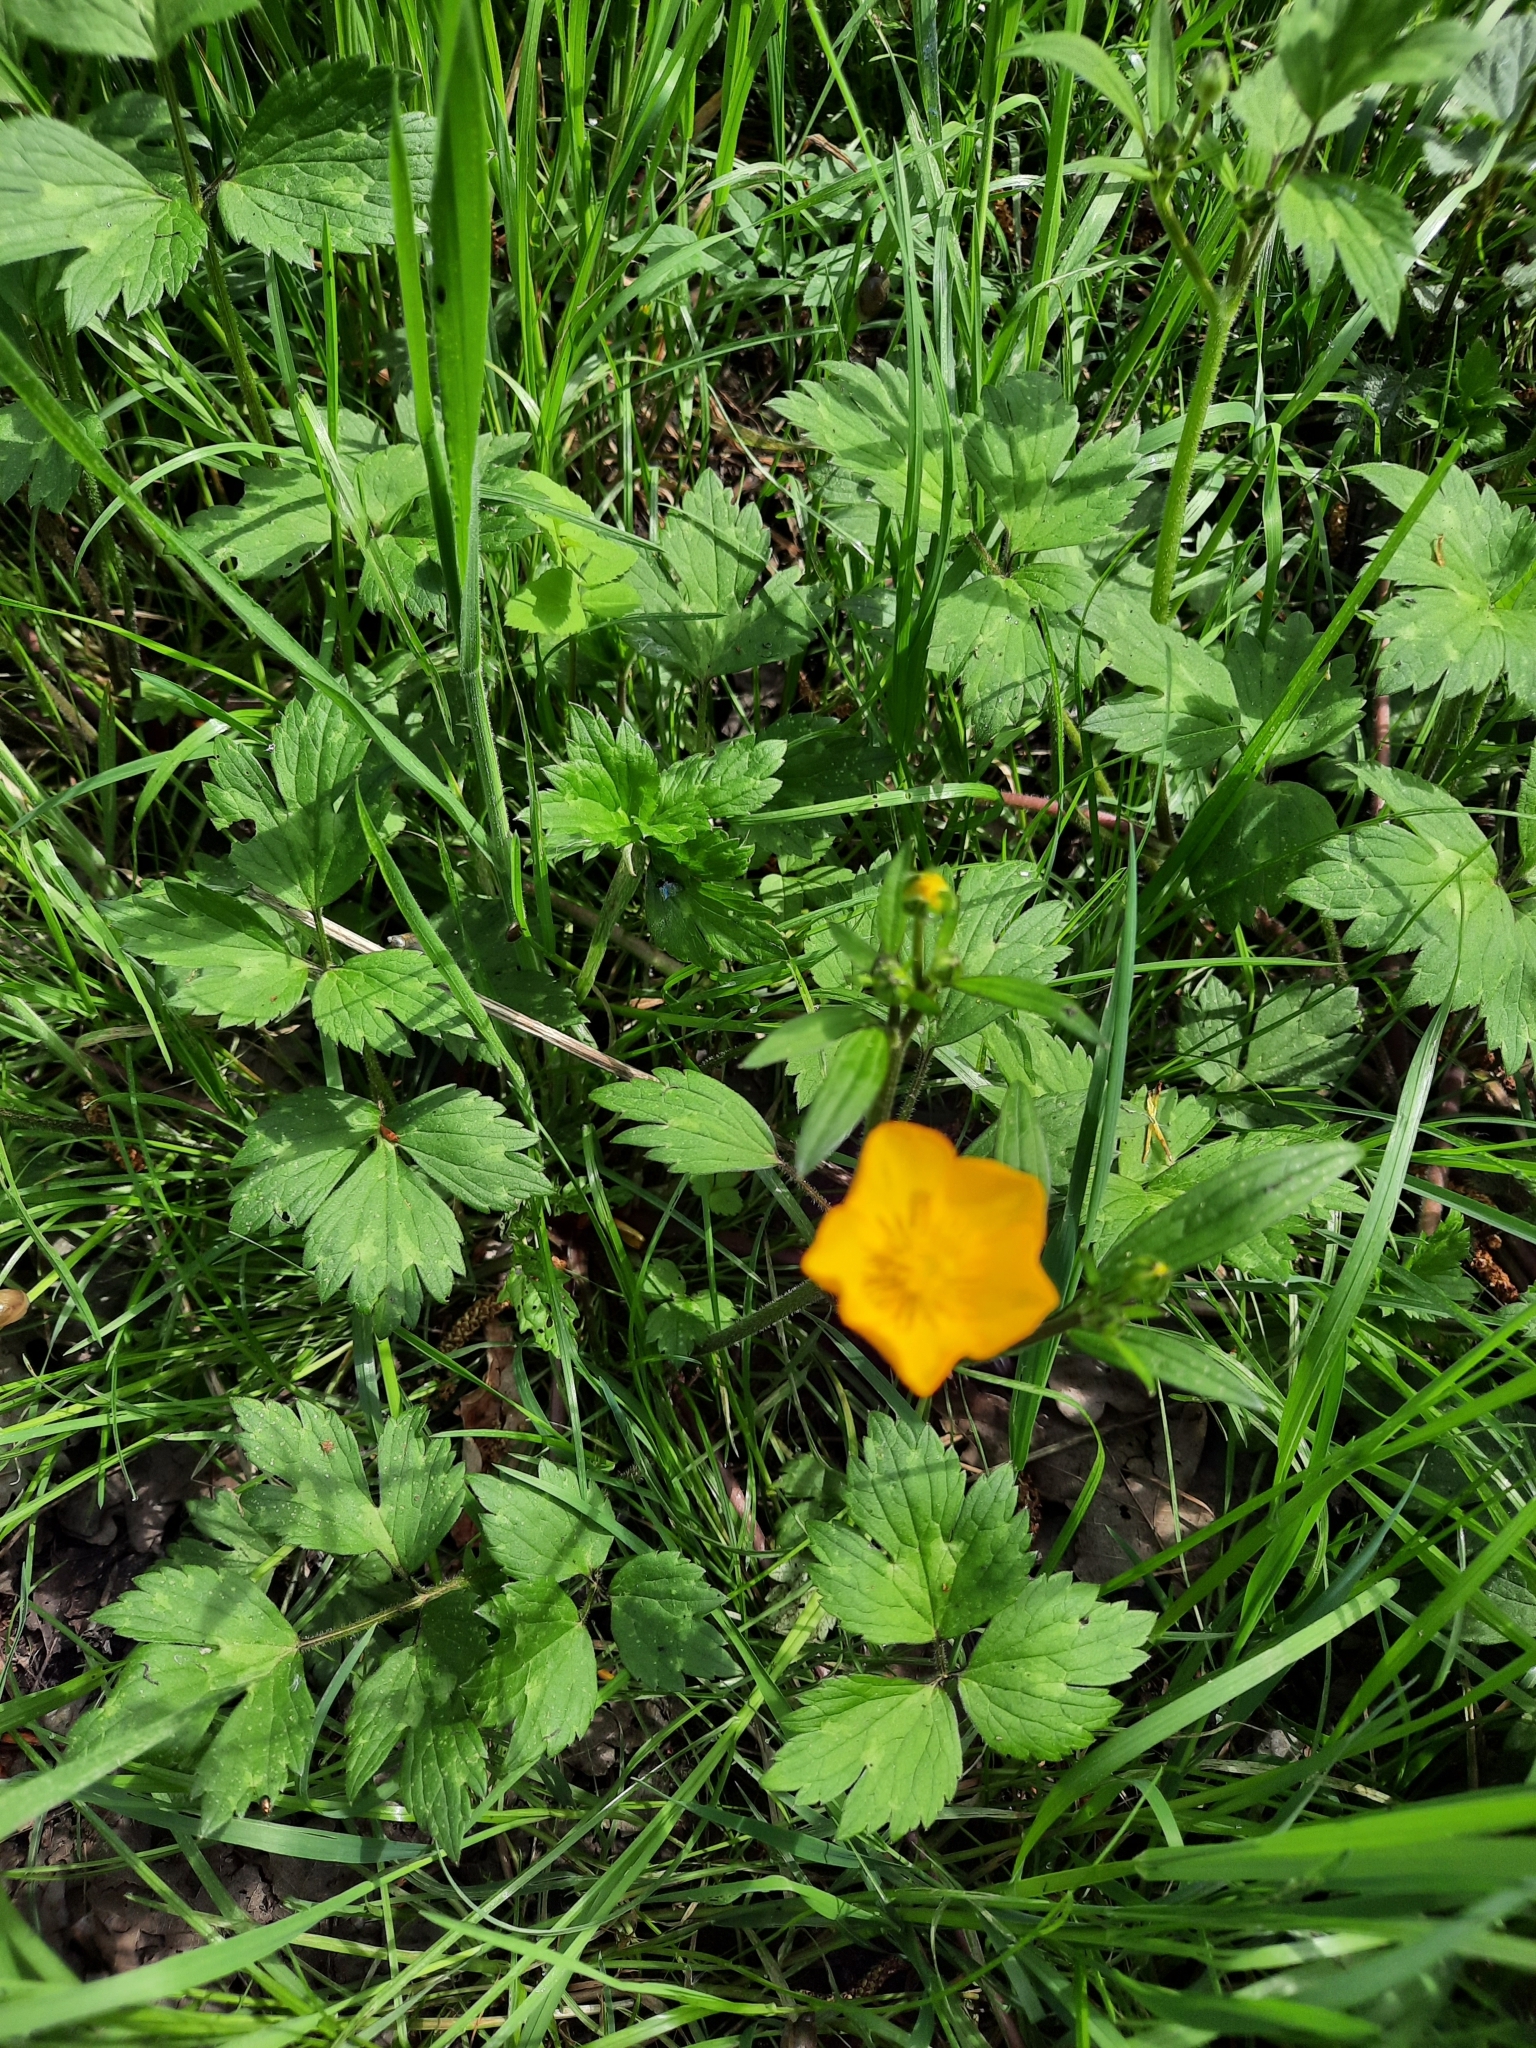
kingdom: Plantae
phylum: Tracheophyta
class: Magnoliopsida
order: Ranunculales
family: Ranunculaceae
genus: Ranunculus
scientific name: Ranunculus repens
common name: Creeping buttercup
